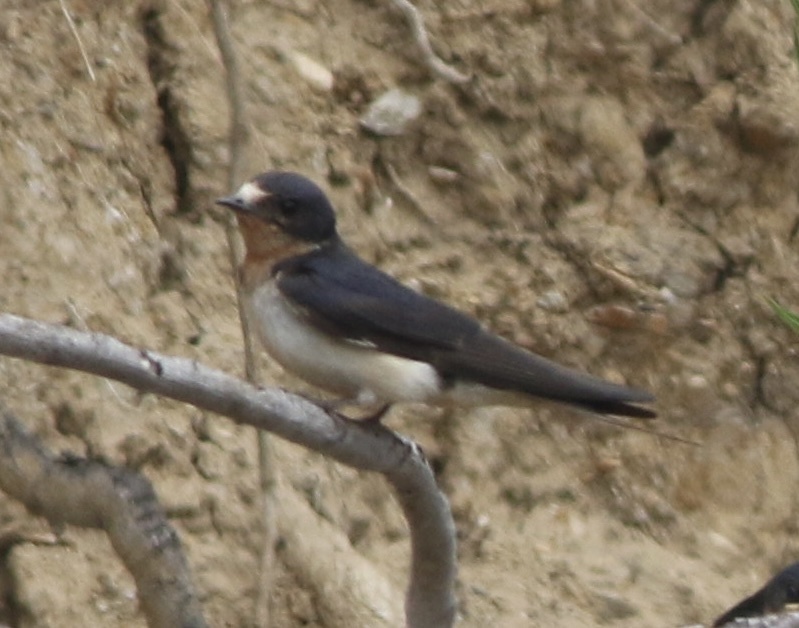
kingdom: Animalia
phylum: Chordata
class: Aves
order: Passeriformes
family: Hirundinidae
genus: Hirundo
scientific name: Hirundo rustica
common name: Barn swallow
